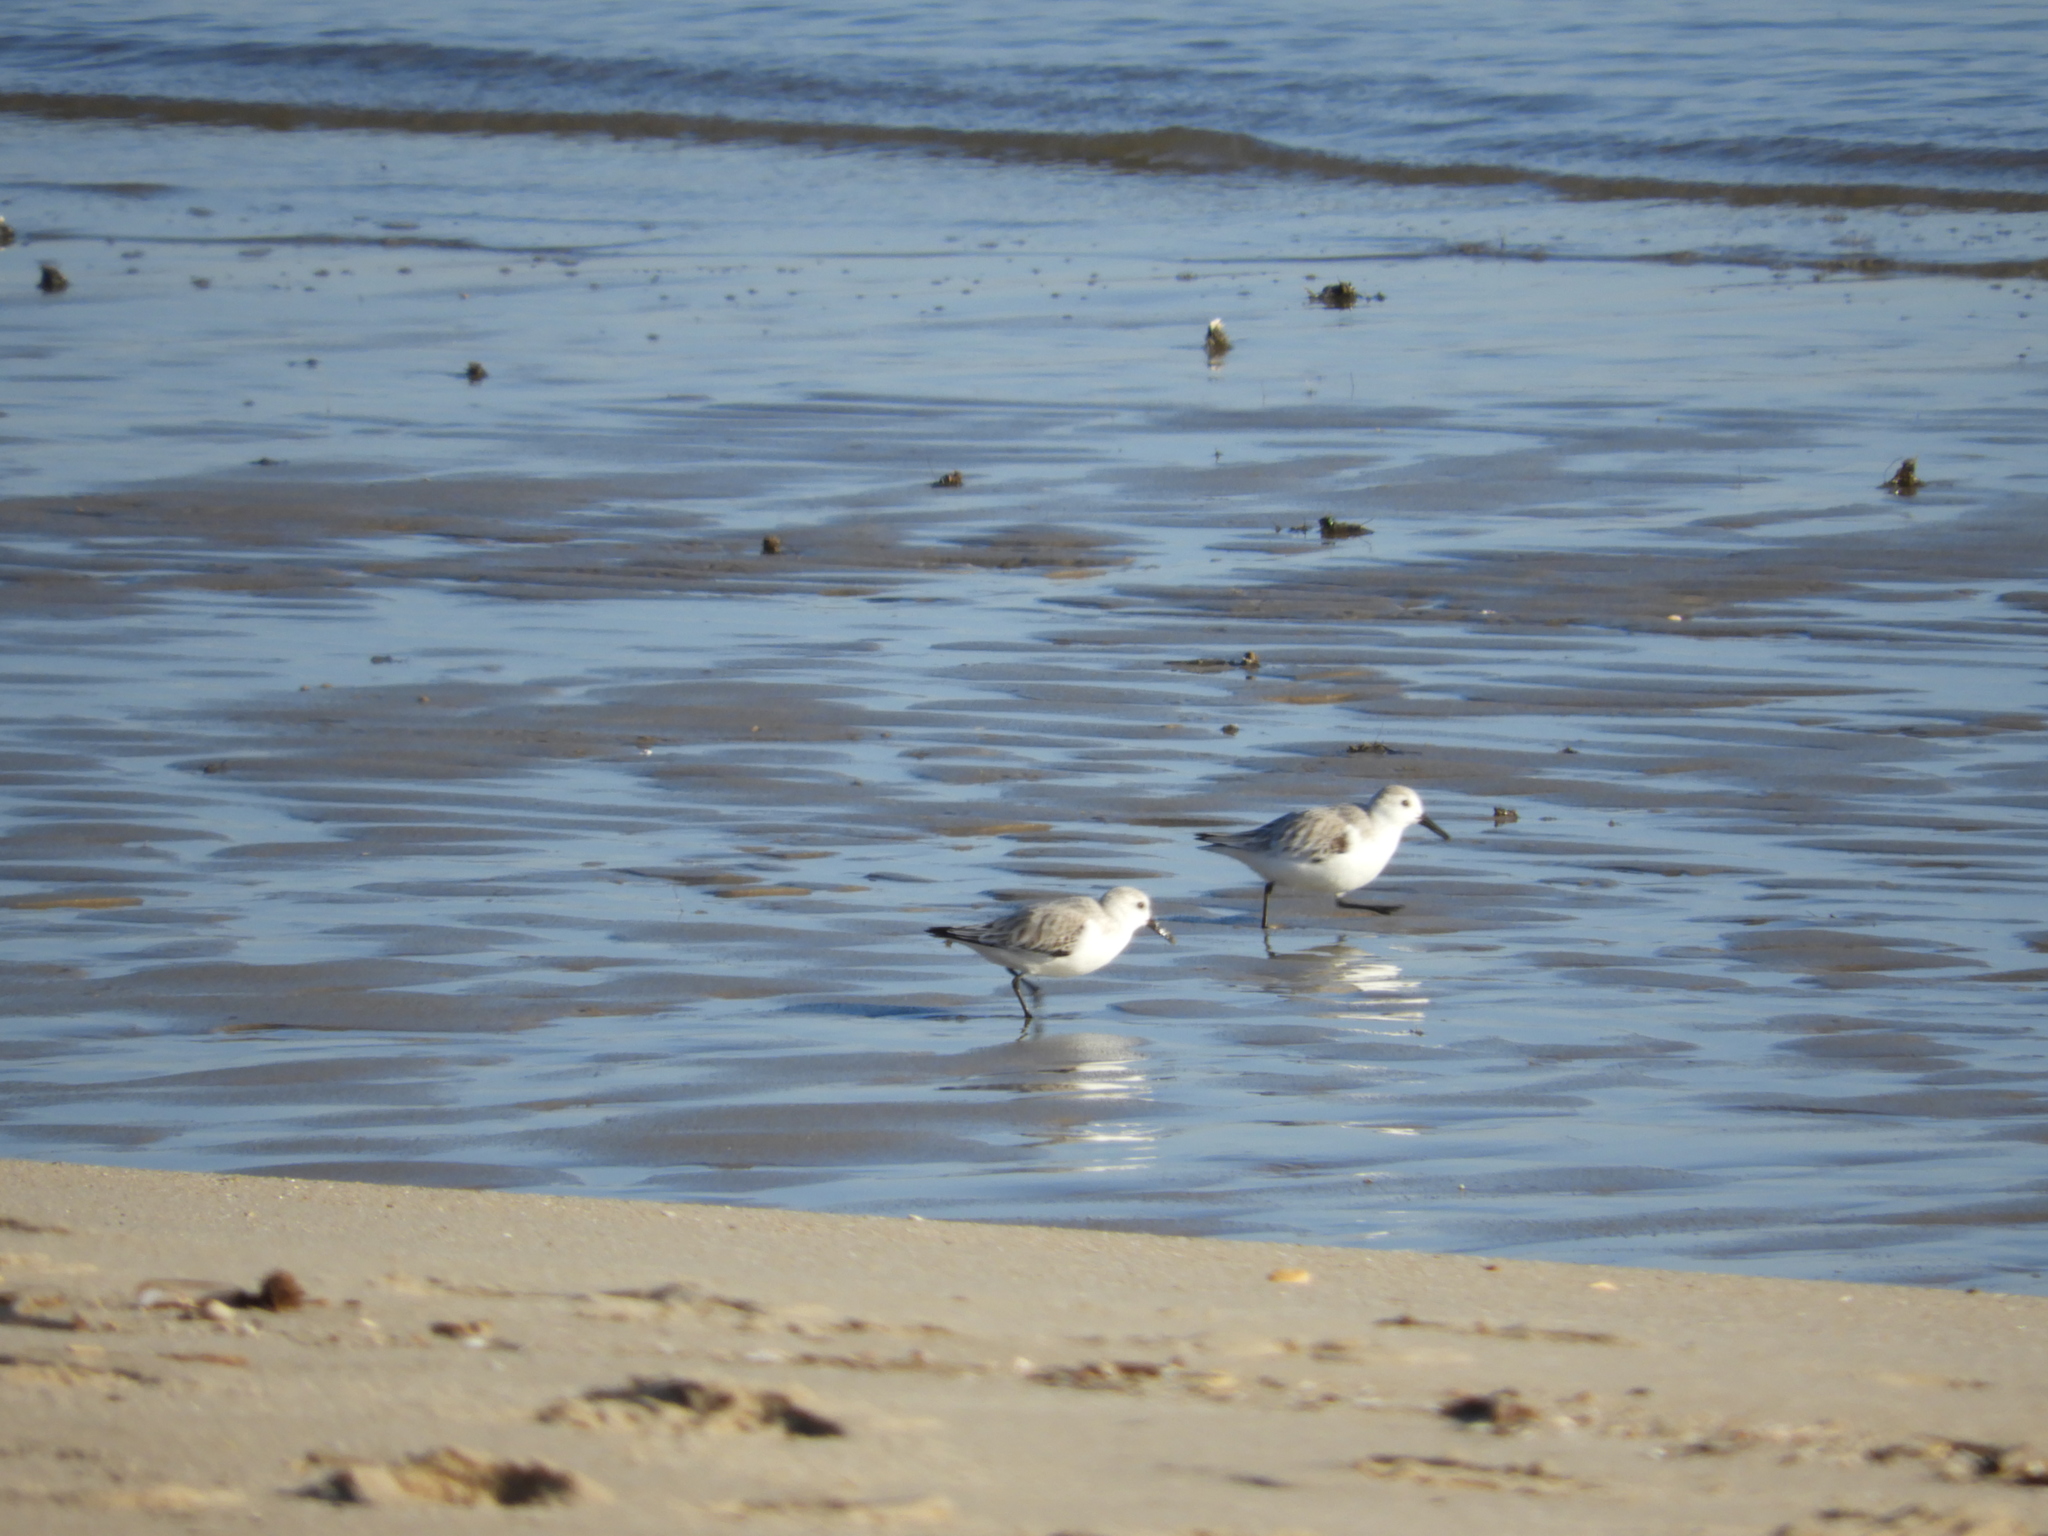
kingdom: Animalia
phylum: Chordata
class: Aves
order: Charadriiformes
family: Scolopacidae
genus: Calidris
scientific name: Calidris alba
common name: Sanderling
